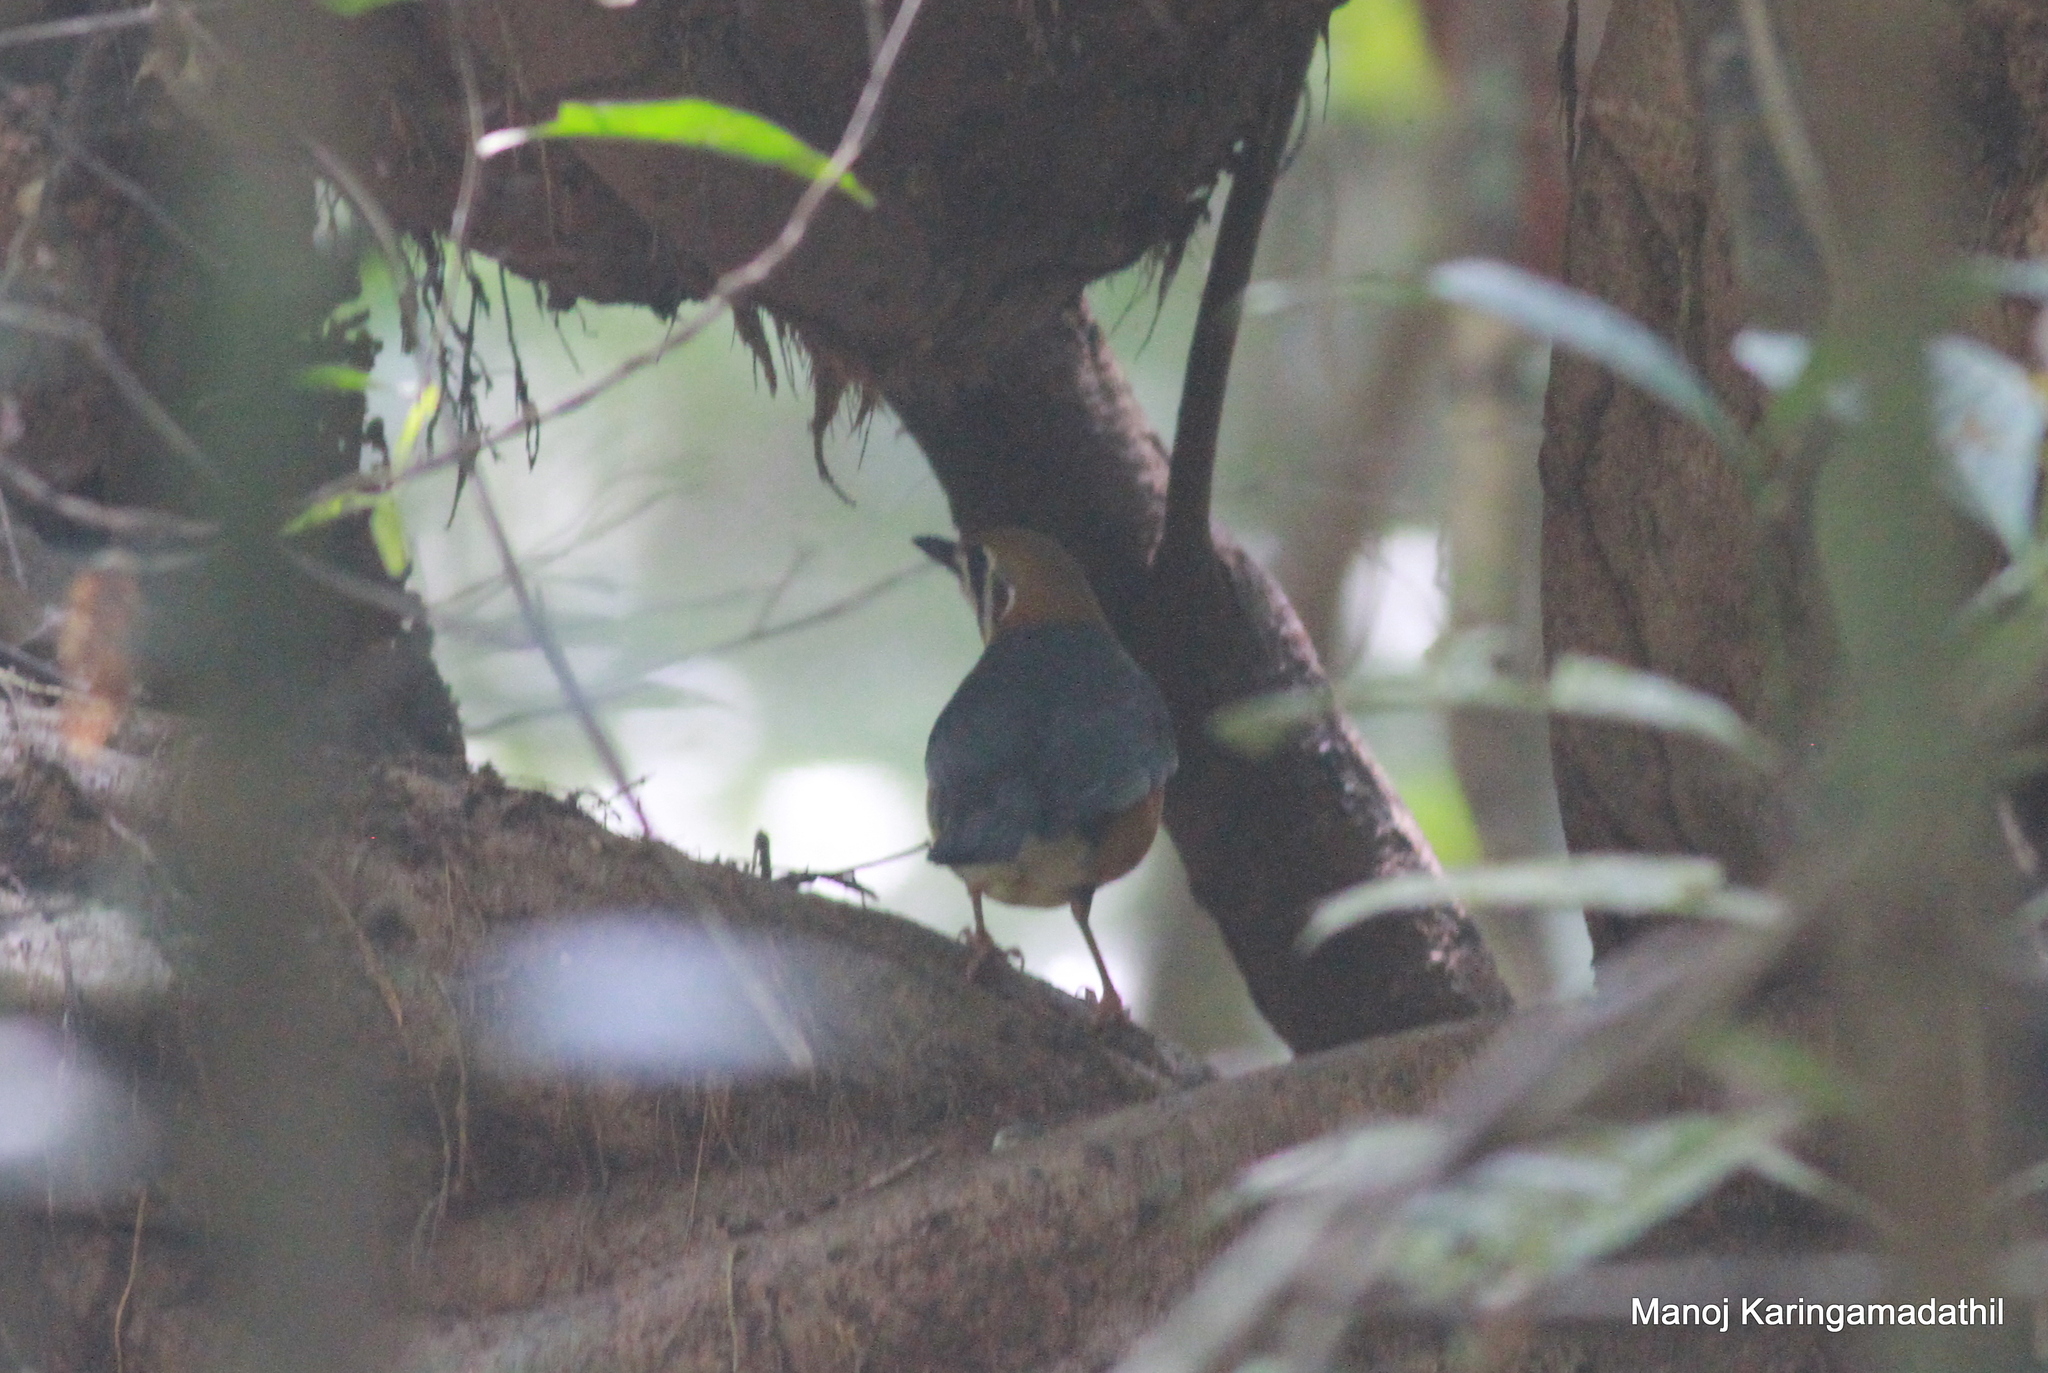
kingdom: Animalia
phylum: Chordata
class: Aves
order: Passeriformes
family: Turdidae
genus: Geokichla
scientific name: Geokichla citrina
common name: Orange-headed thrush
